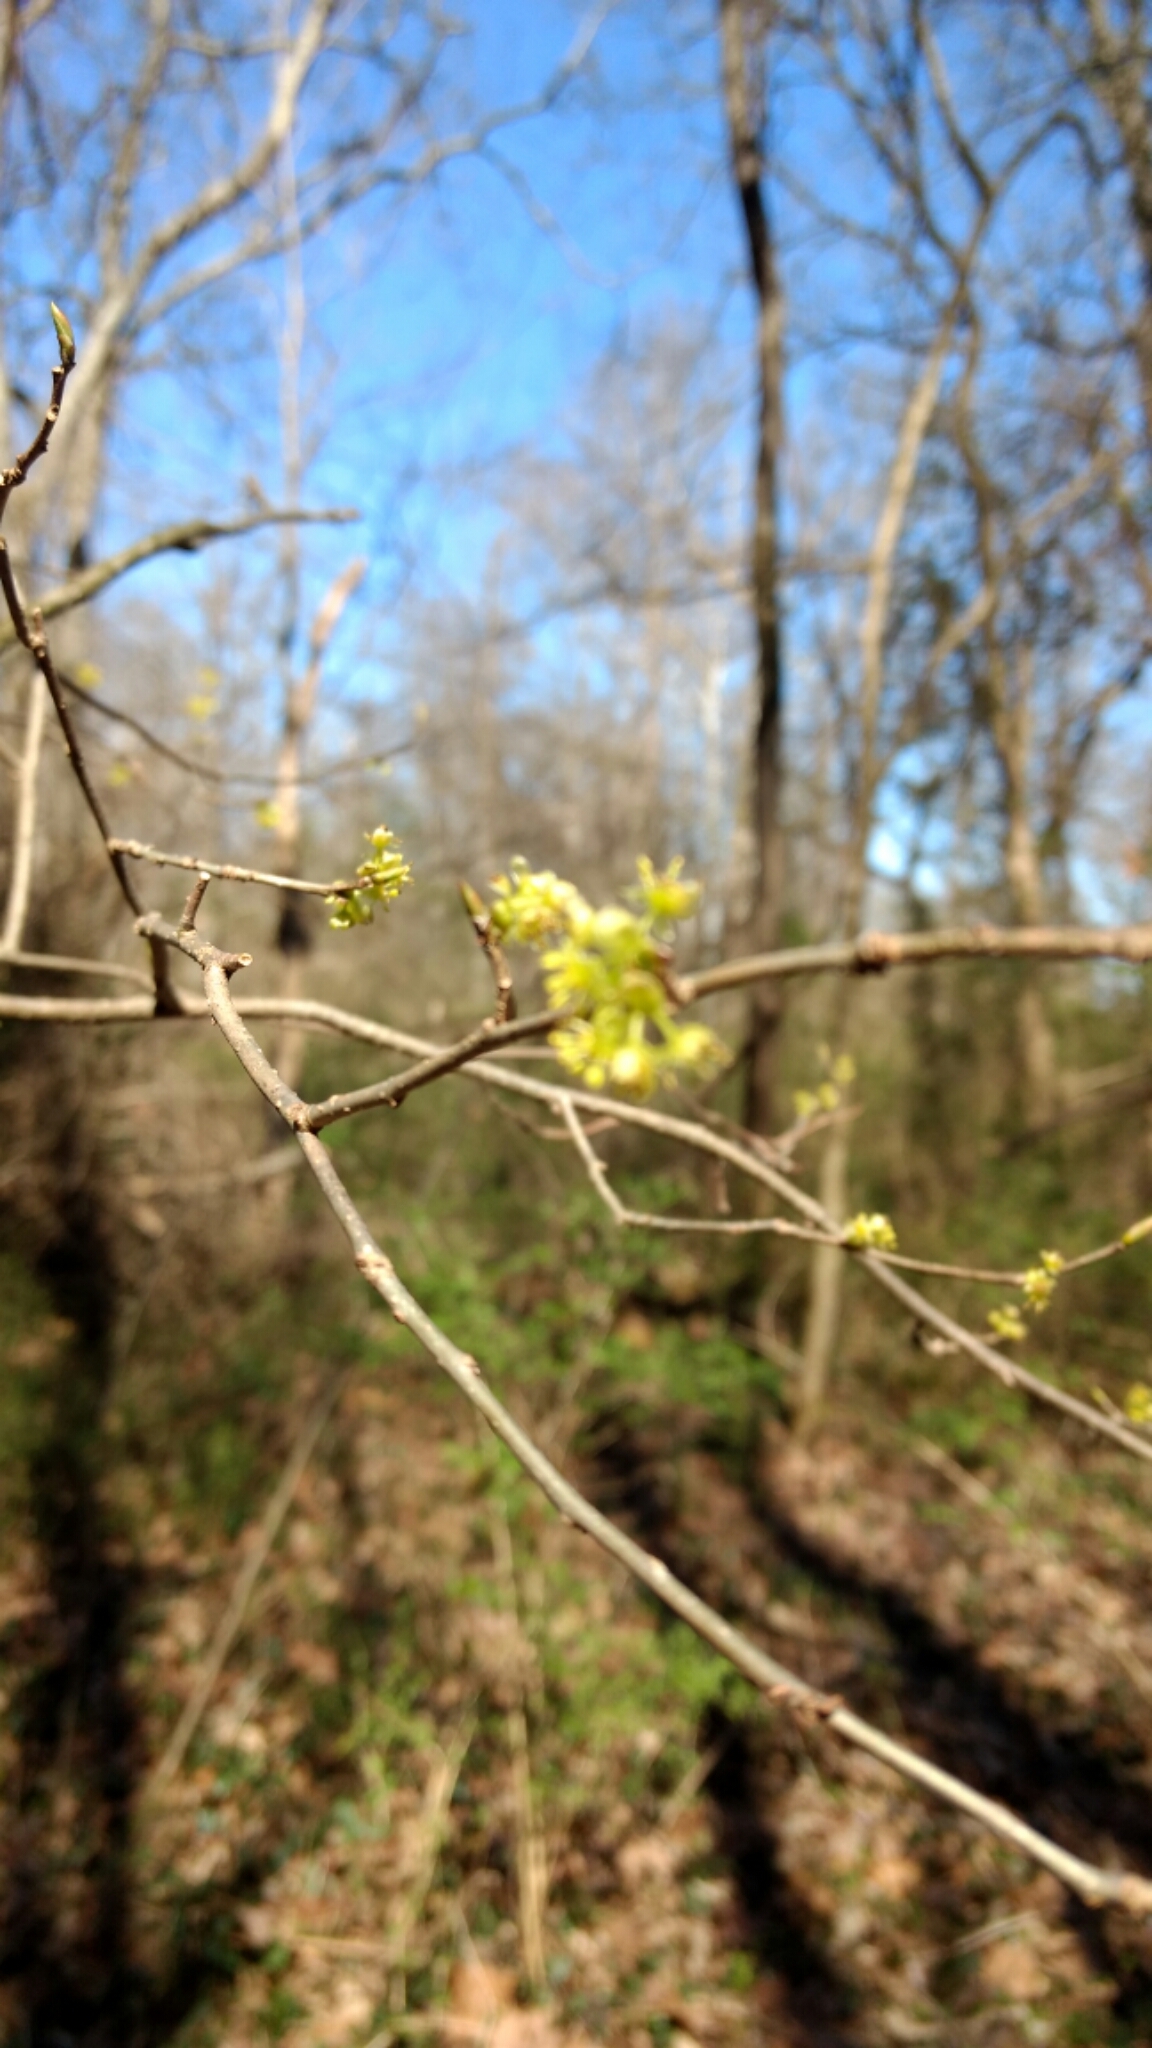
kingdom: Plantae
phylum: Tracheophyta
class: Magnoliopsida
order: Laurales
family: Lauraceae
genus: Lindera
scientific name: Lindera benzoin
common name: Spicebush
